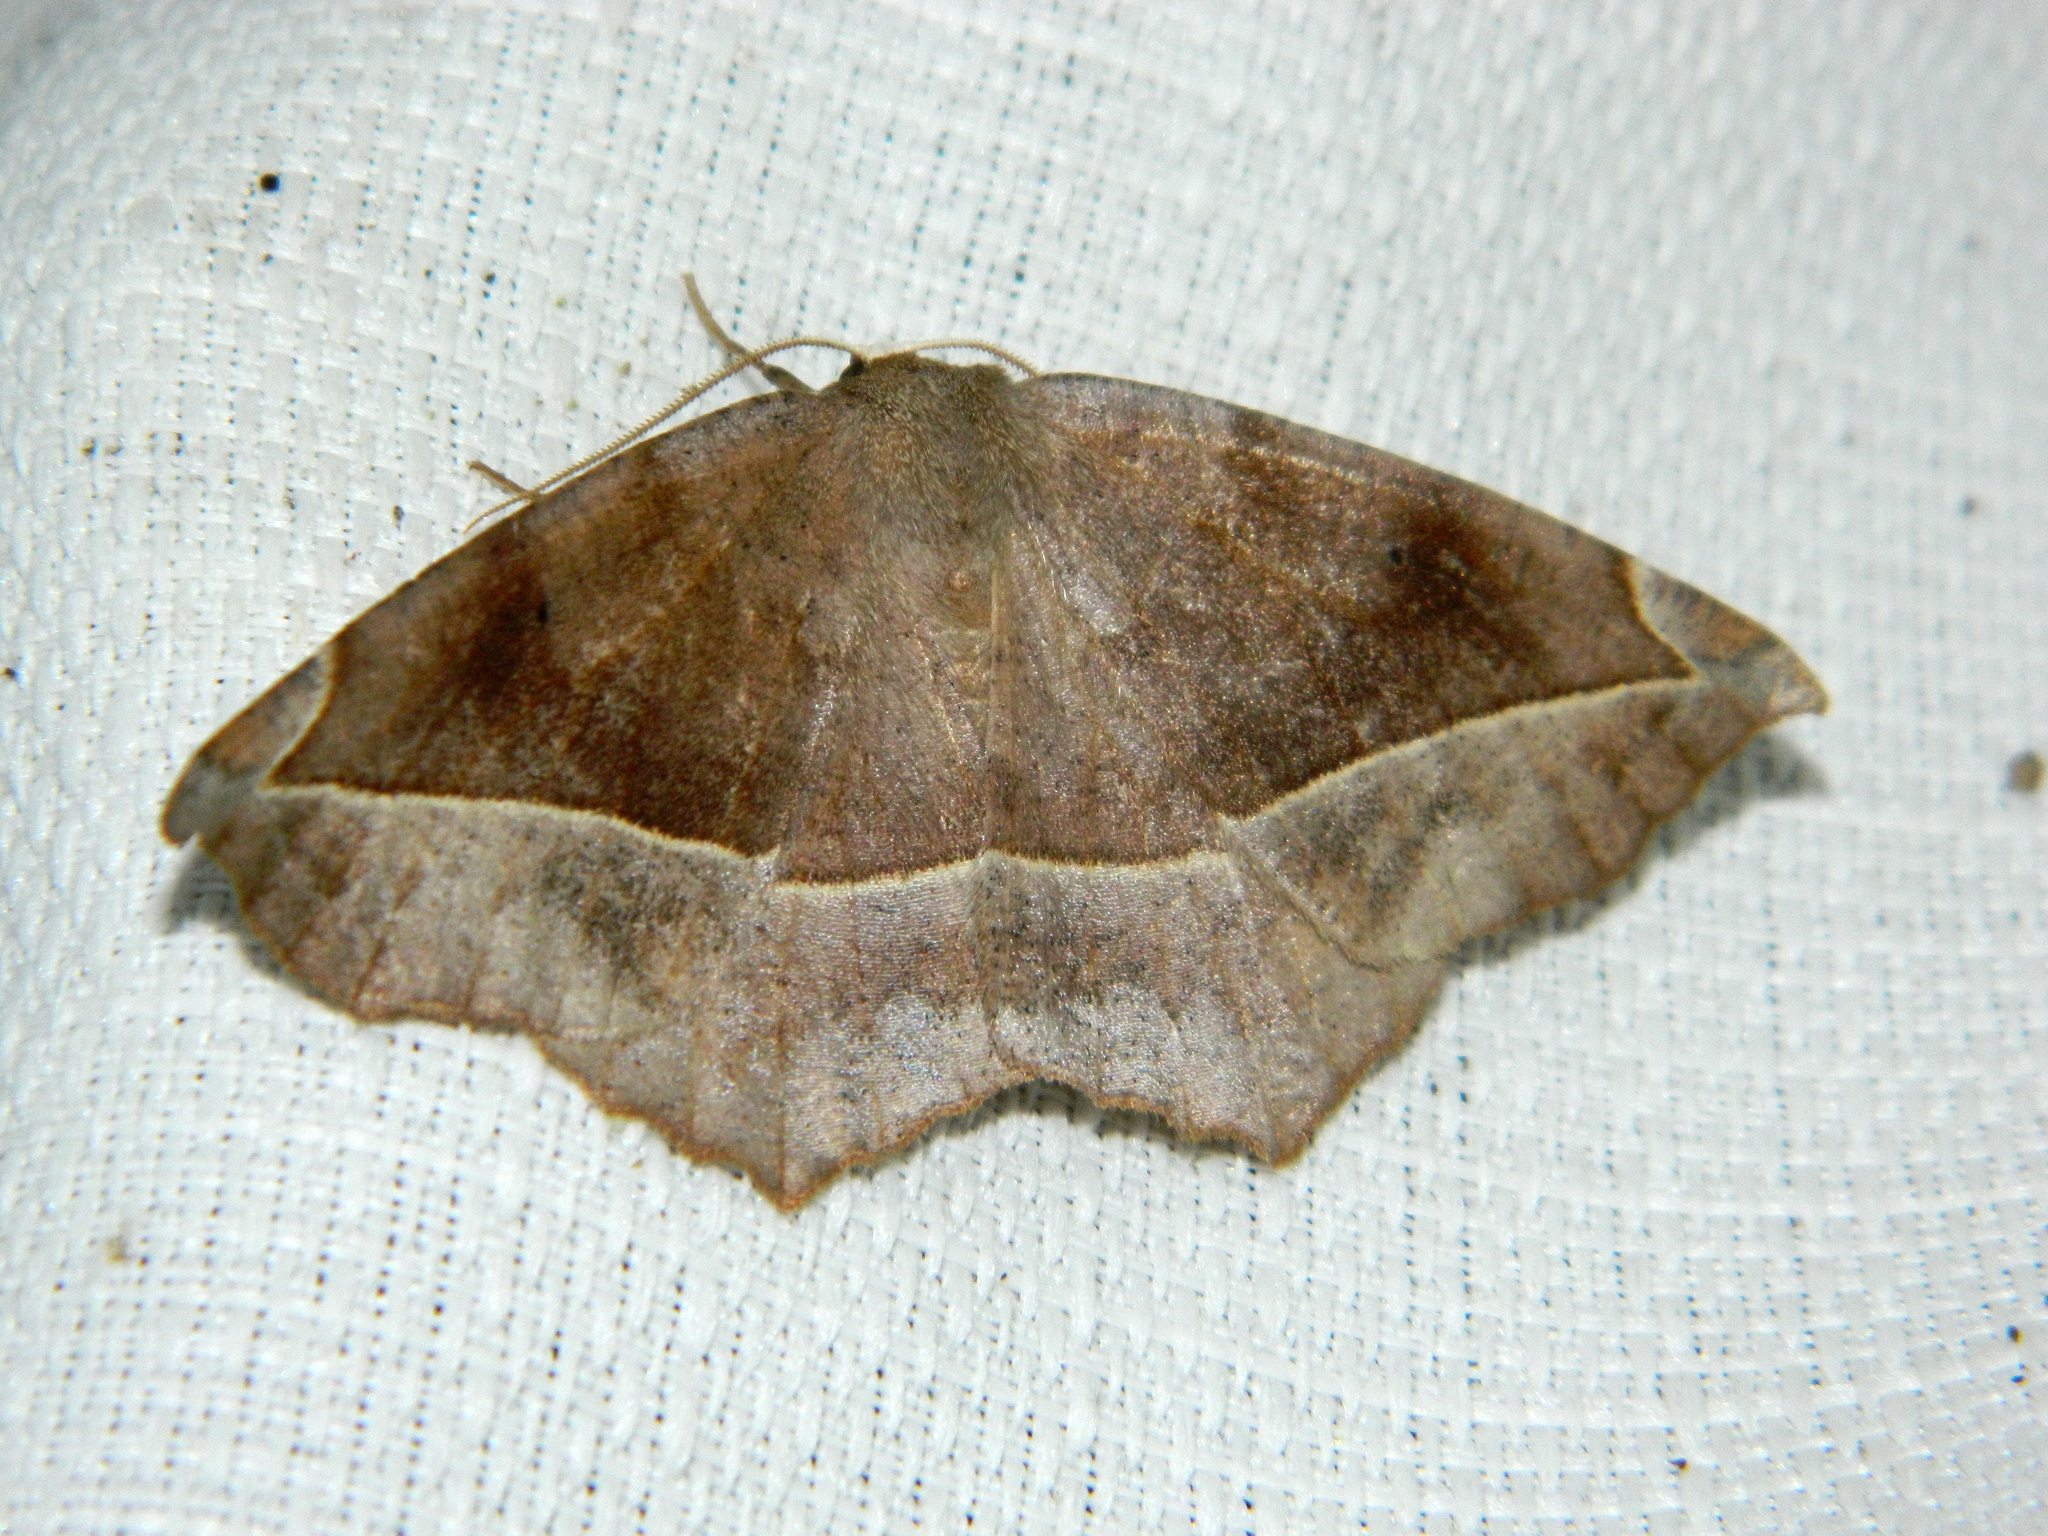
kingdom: Animalia
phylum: Arthropoda
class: Insecta
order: Lepidoptera
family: Geometridae
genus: Eutrapela
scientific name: Eutrapela clemataria
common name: Curved-toothed geometer
